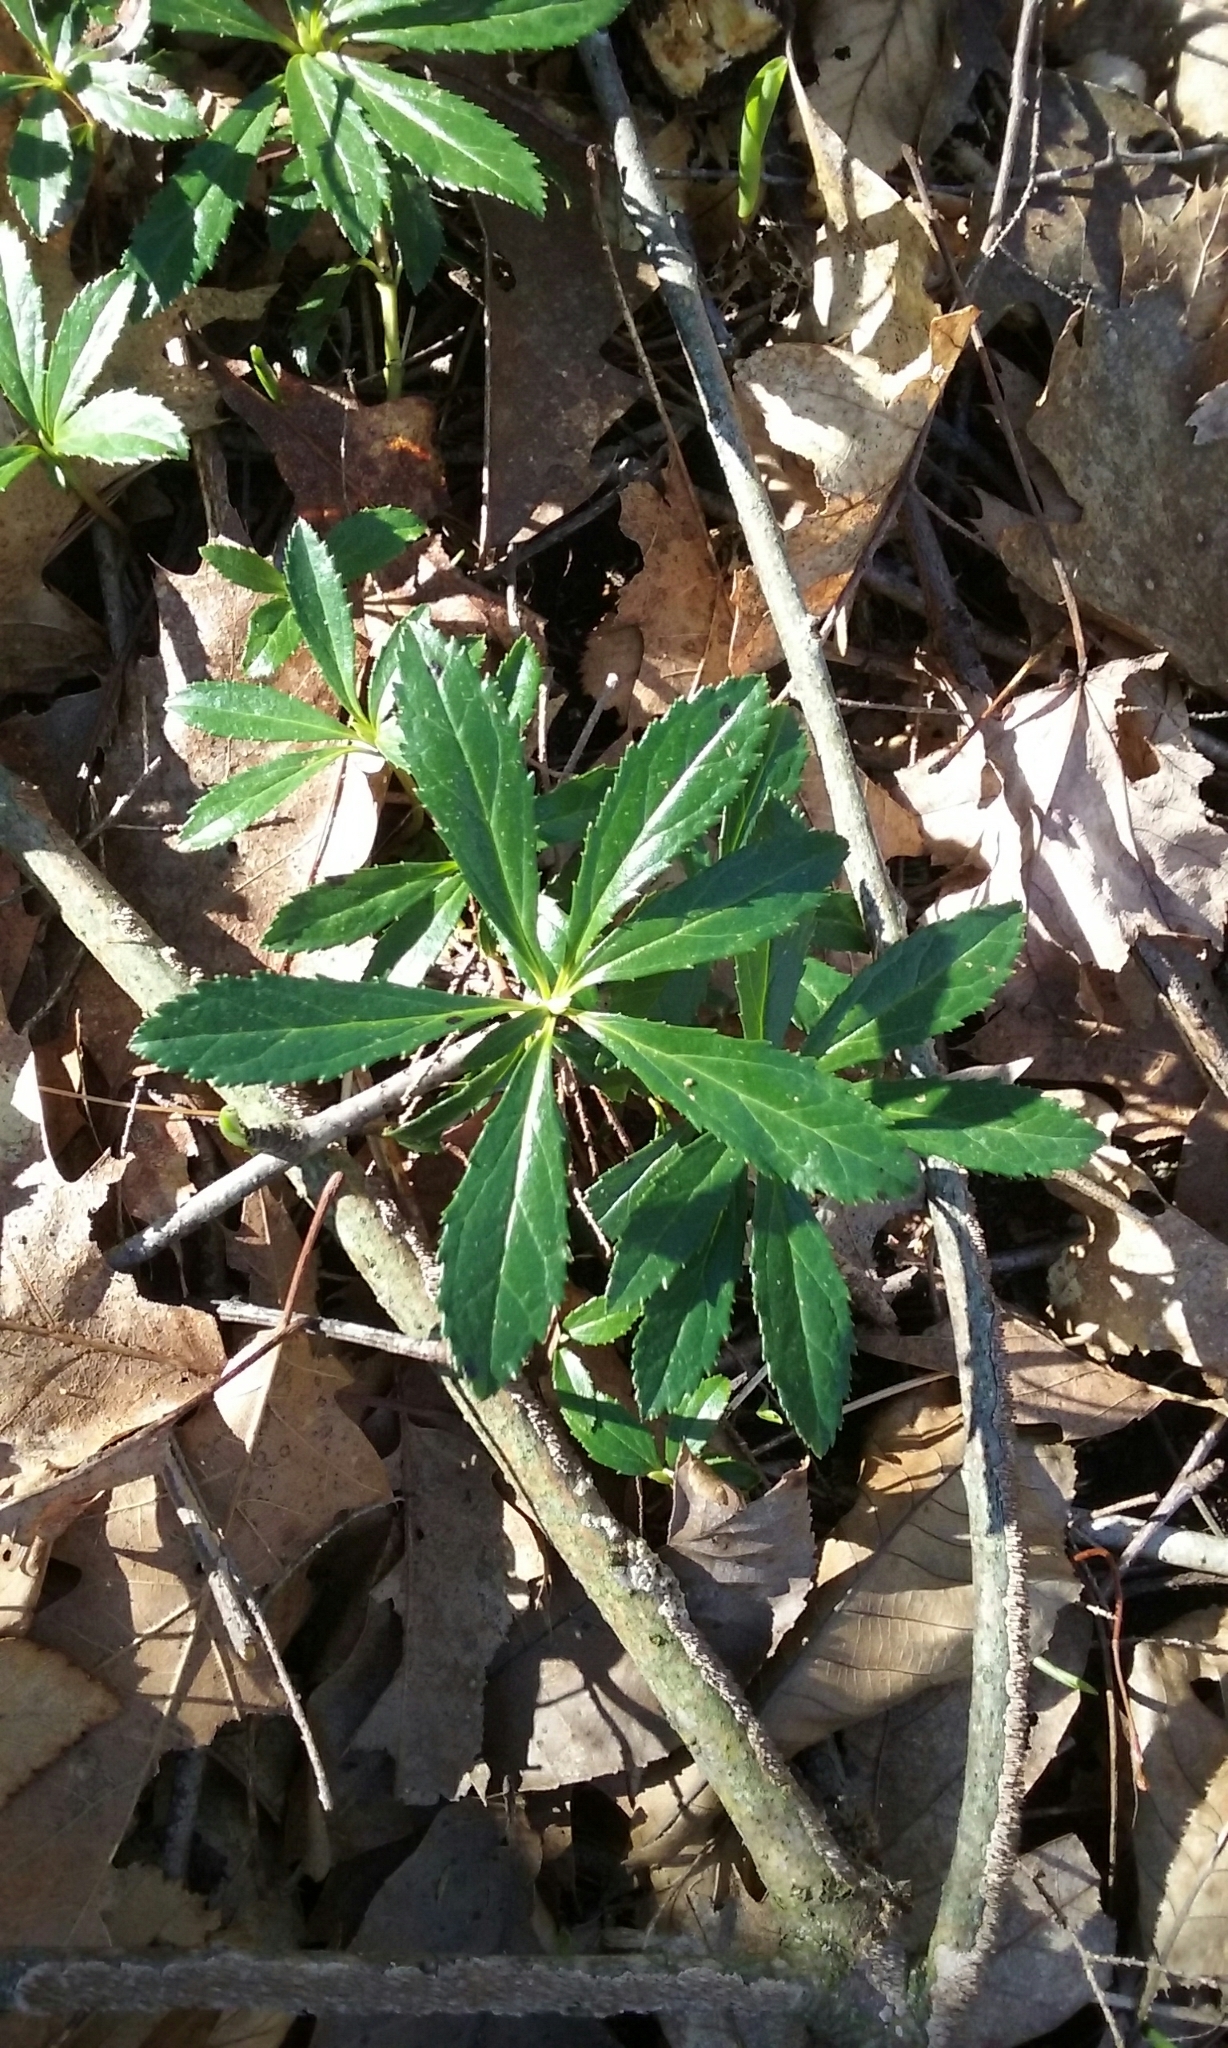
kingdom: Plantae
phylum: Tracheophyta
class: Magnoliopsida
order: Ericales
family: Ericaceae
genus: Chimaphila
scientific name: Chimaphila umbellata
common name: Pipsissewa
